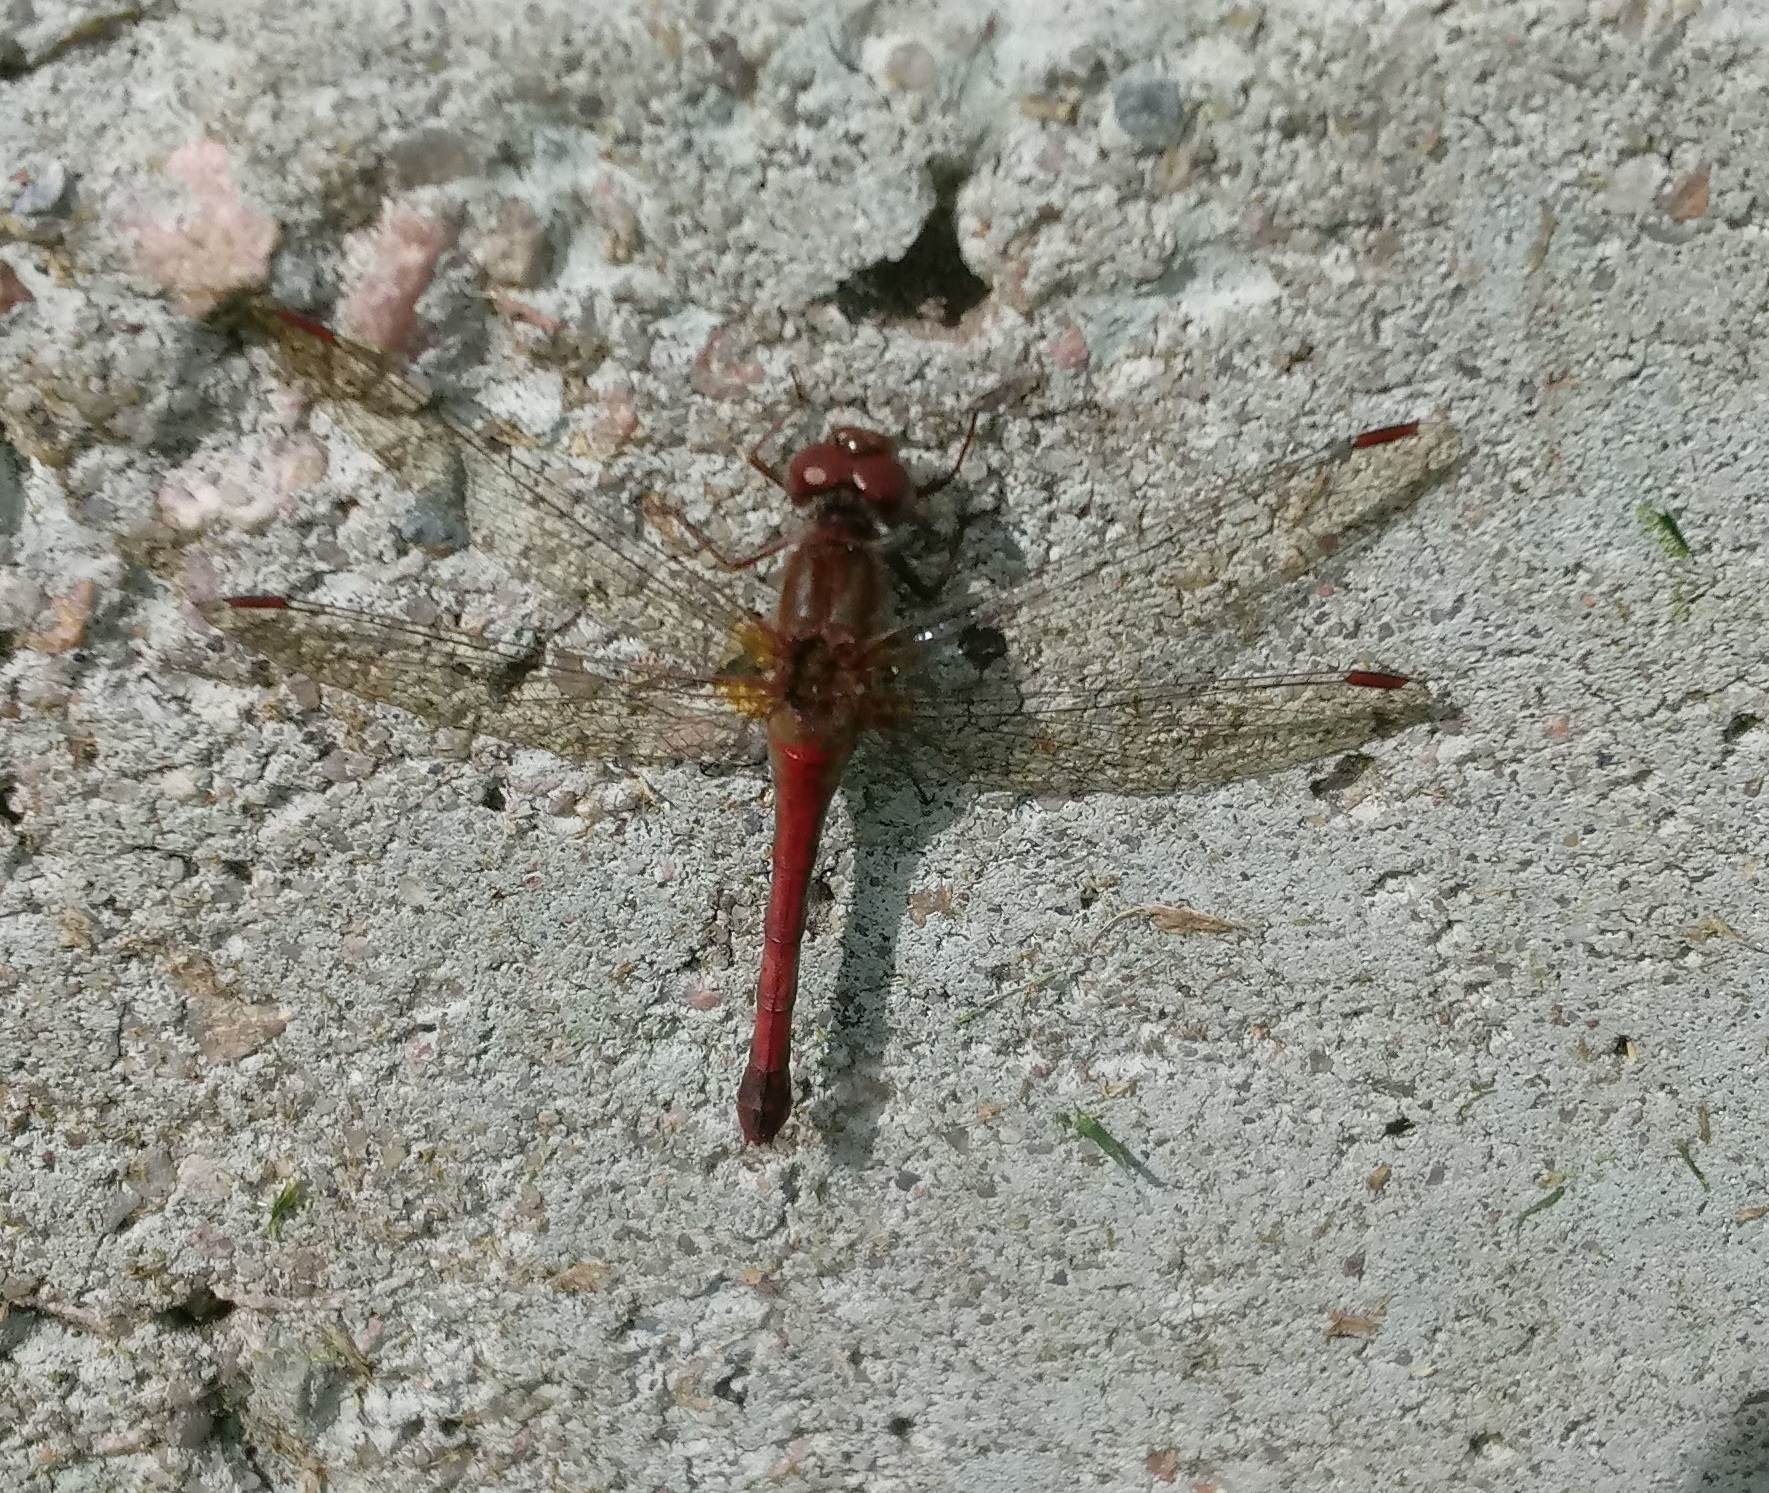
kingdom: Animalia
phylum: Arthropoda
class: Insecta
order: Odonata
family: Libellulidae
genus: Sympetrum
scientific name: Sympetrum vicinum
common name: Autumn meadowhawk
